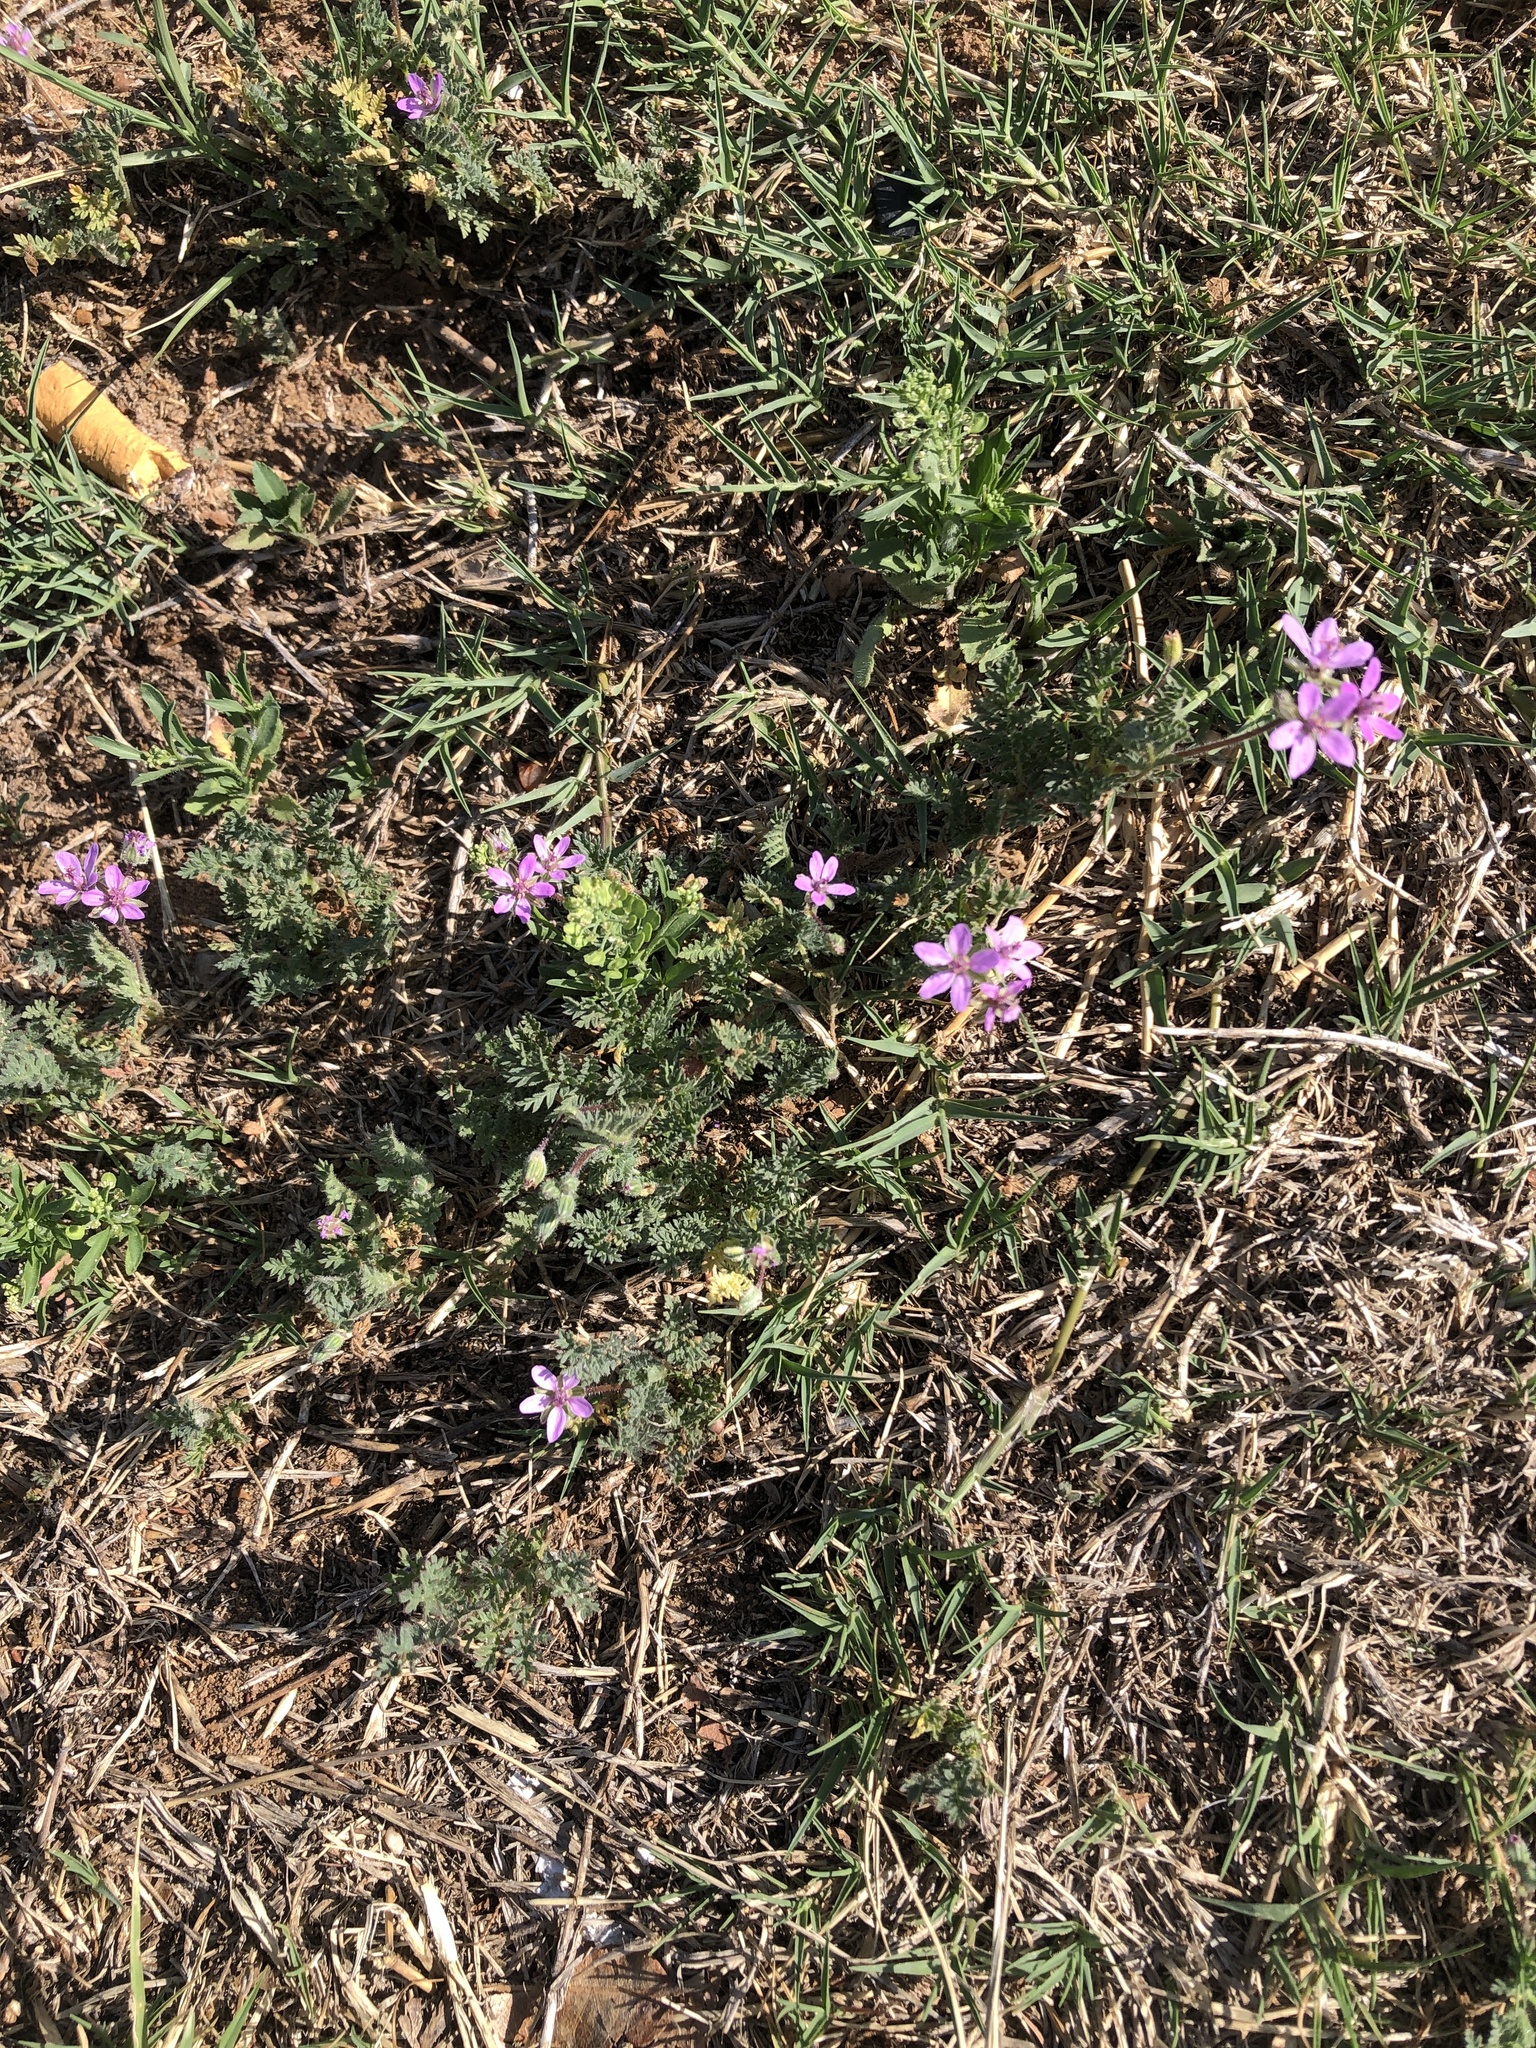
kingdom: Plantae
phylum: Tracheophyta
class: Magnoliopsida
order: Geraniales
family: Geraniaceae
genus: Erodium
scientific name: Erodium cicutarium
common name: Common stork's-bill
